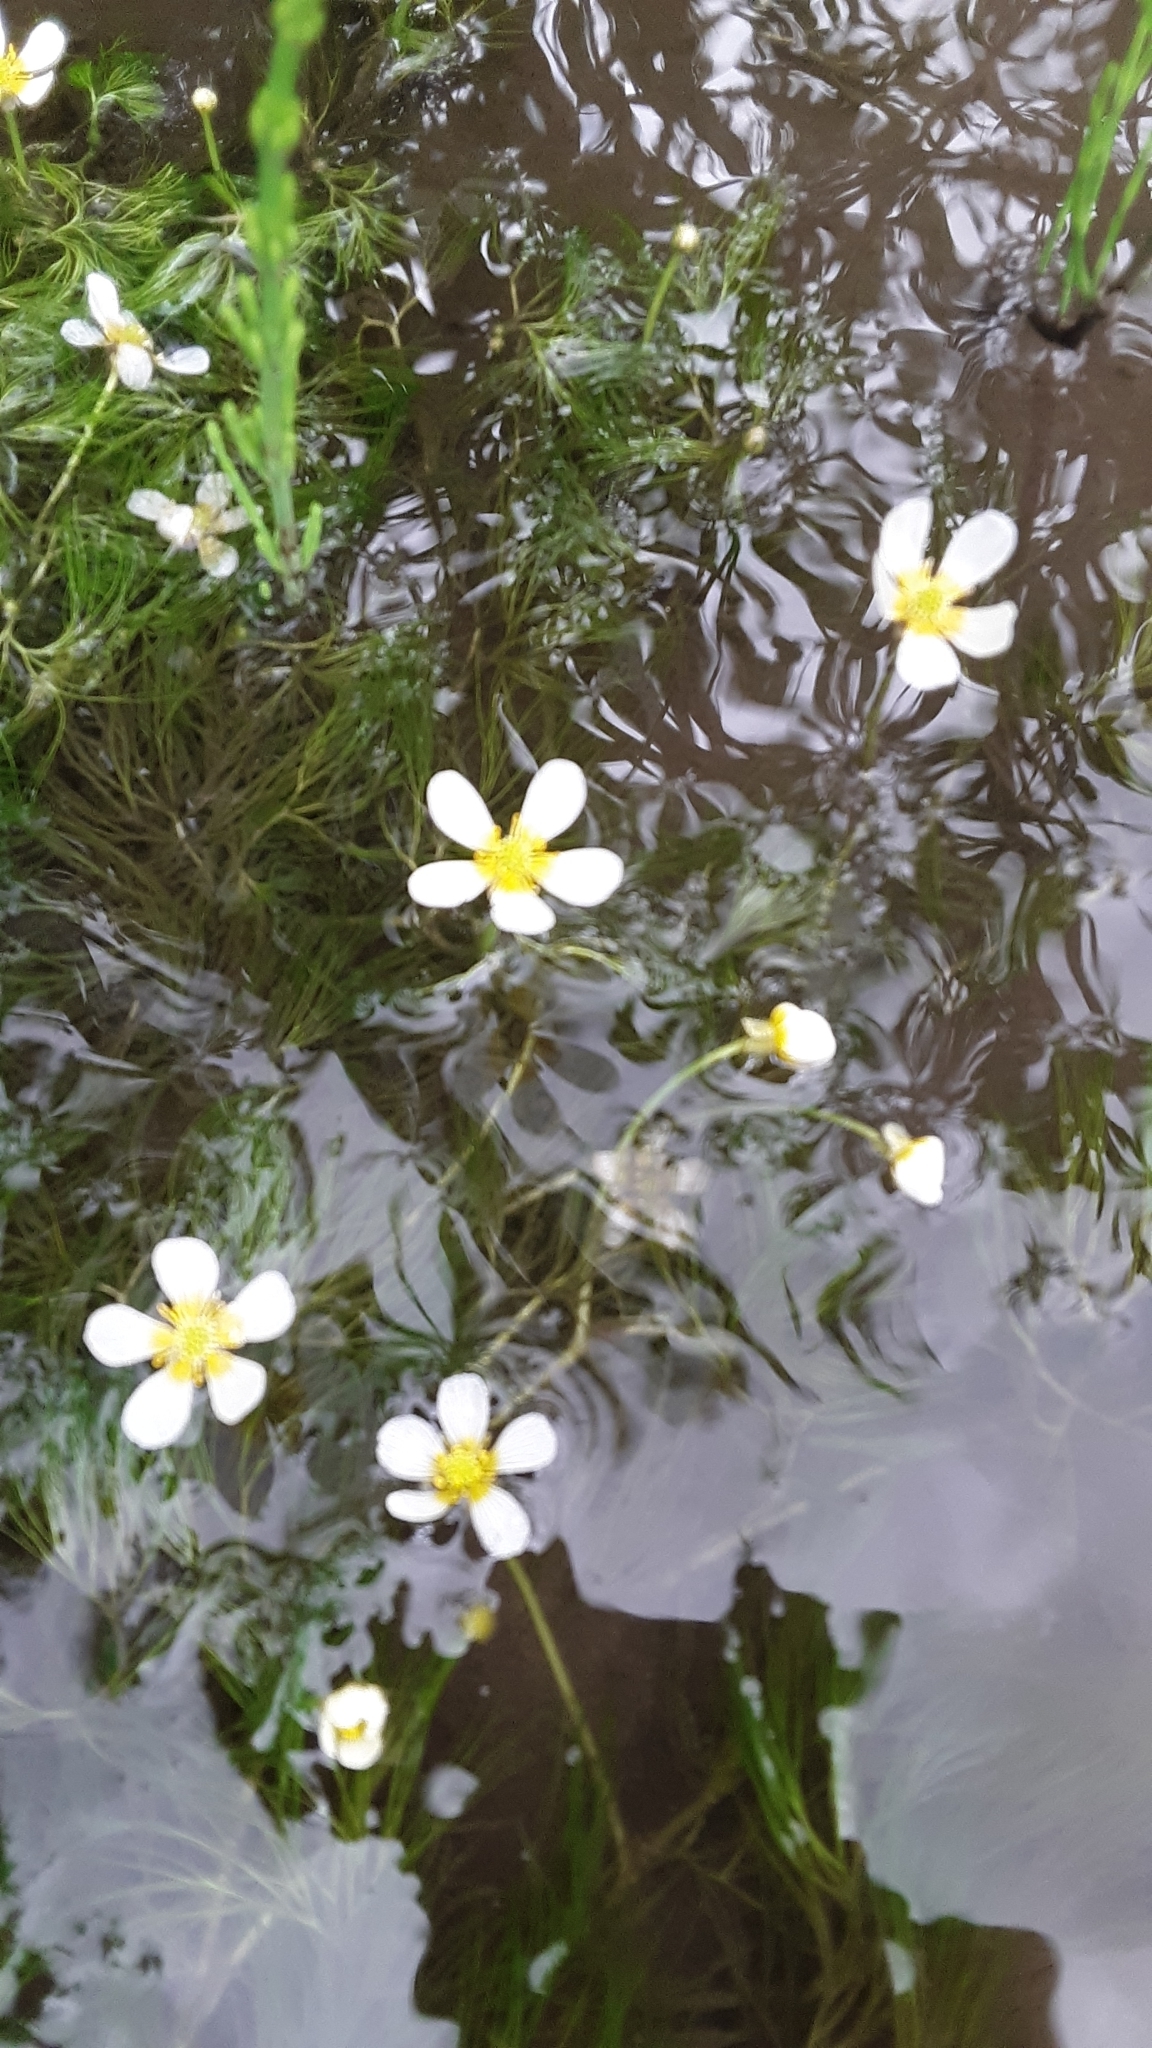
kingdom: Plantae
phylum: Tracheophyta
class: Magnoliopsida
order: Ranunculales
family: Ranunculaceae
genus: Ranunculus
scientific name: Ranunculus aquatilis
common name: Common water-crowfoot
